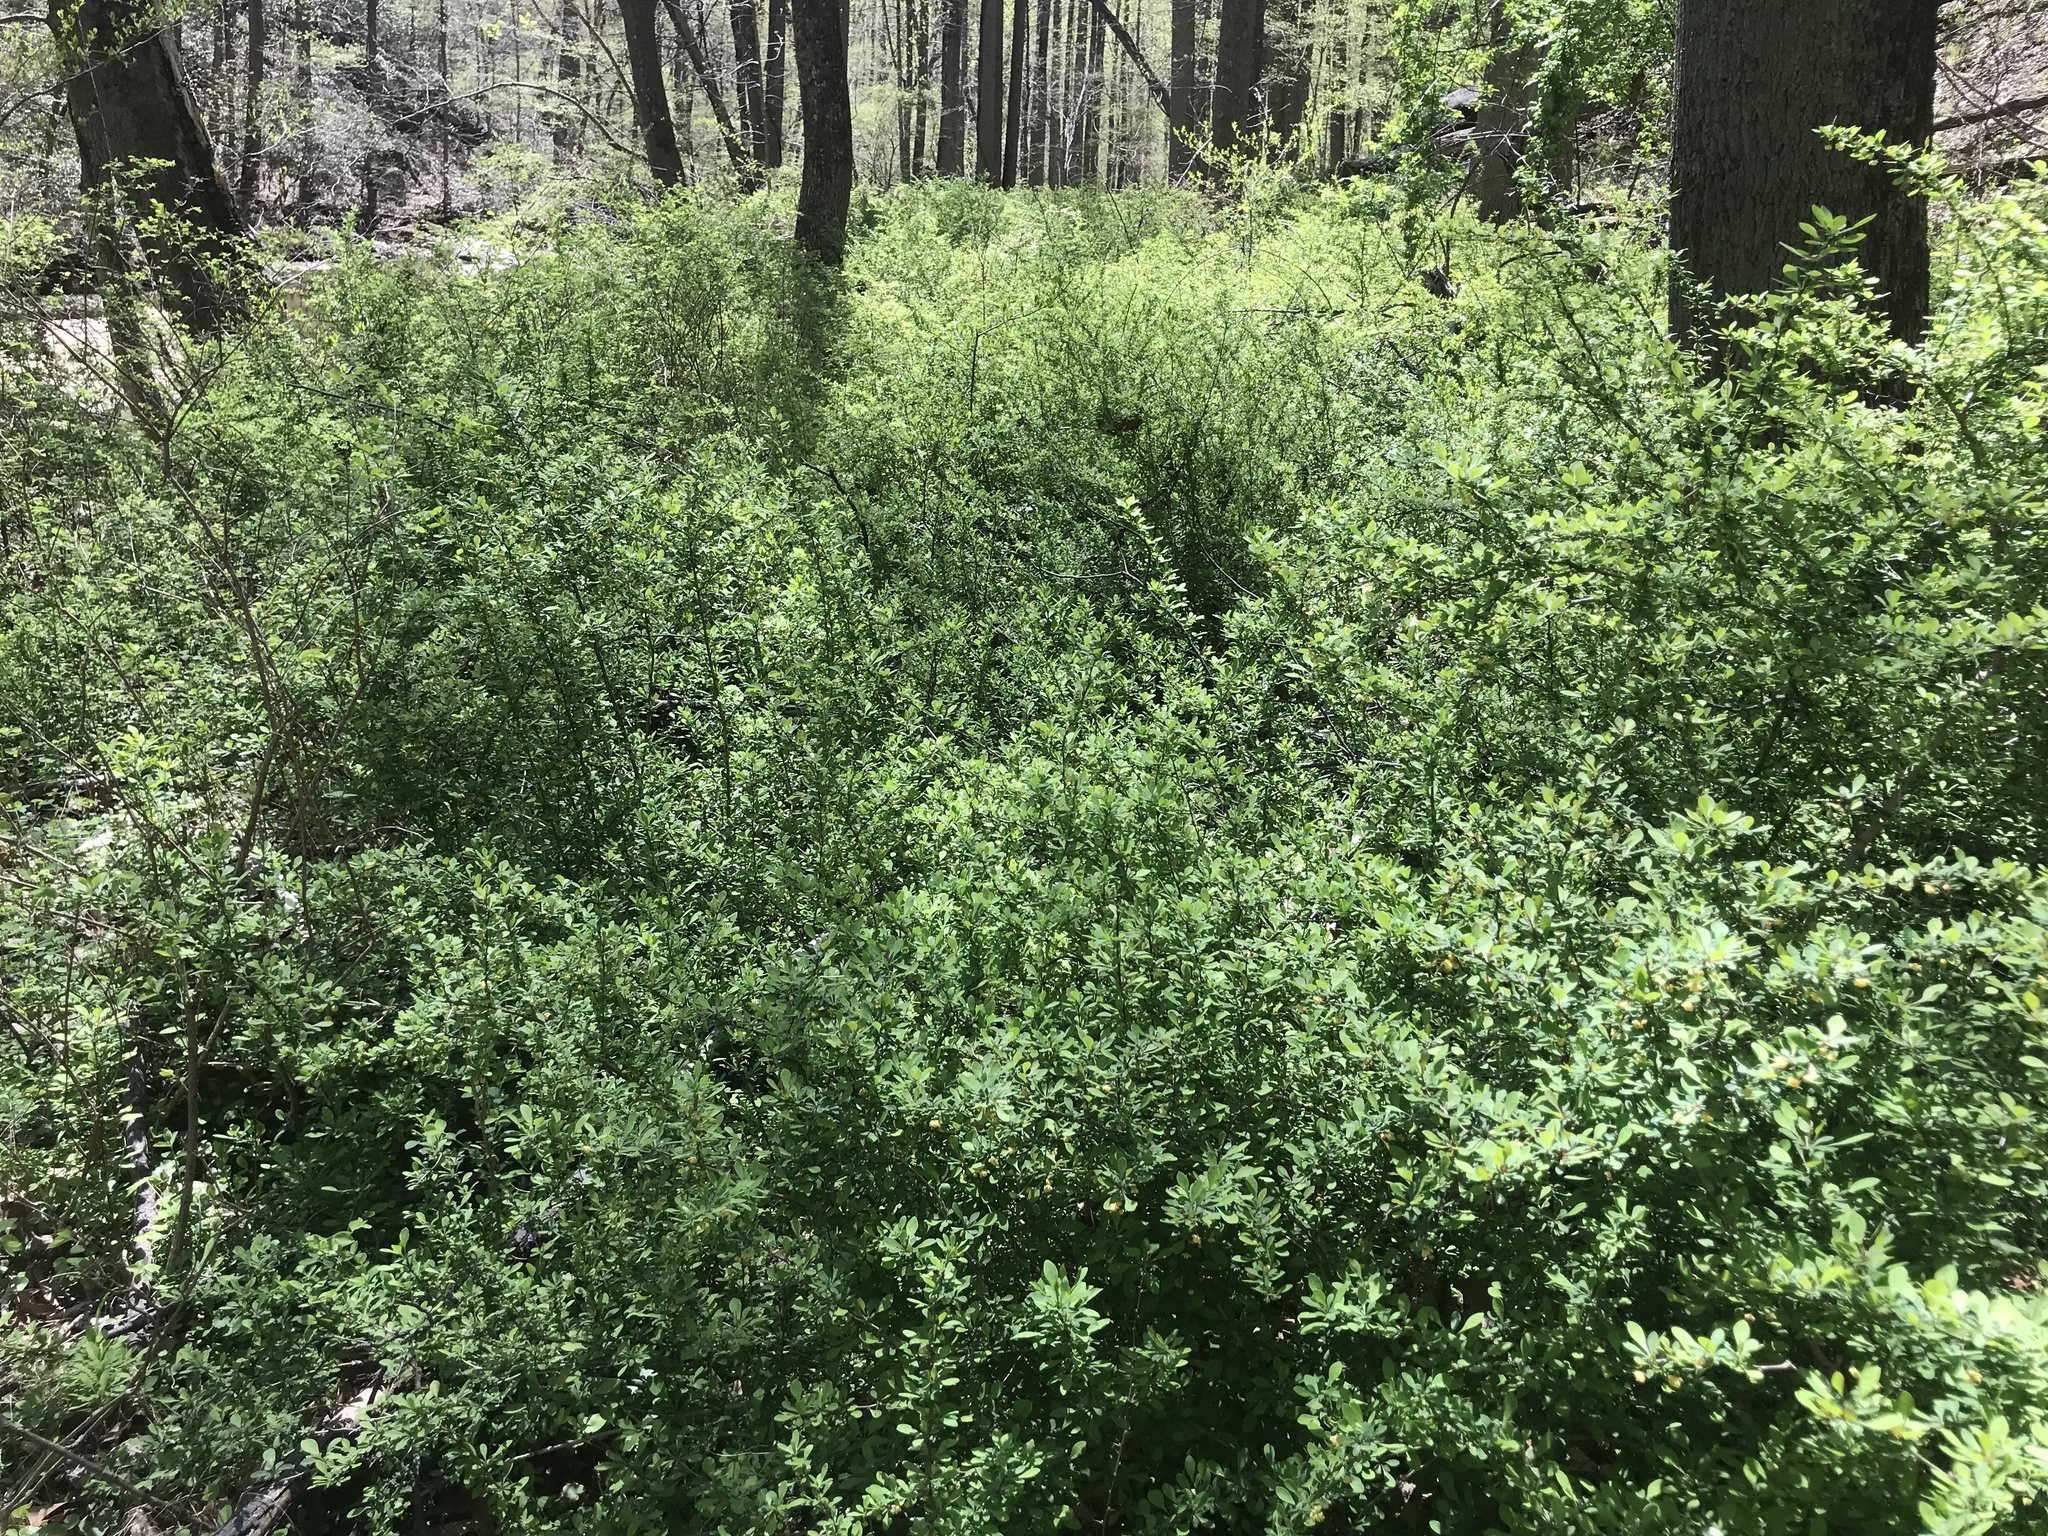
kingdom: Plantae
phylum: Tracheophyta
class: Magnoliopsida
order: Ranunculales
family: Berberidaceae
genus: Berberis
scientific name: Berberis thunbergii
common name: Japanese barberry
